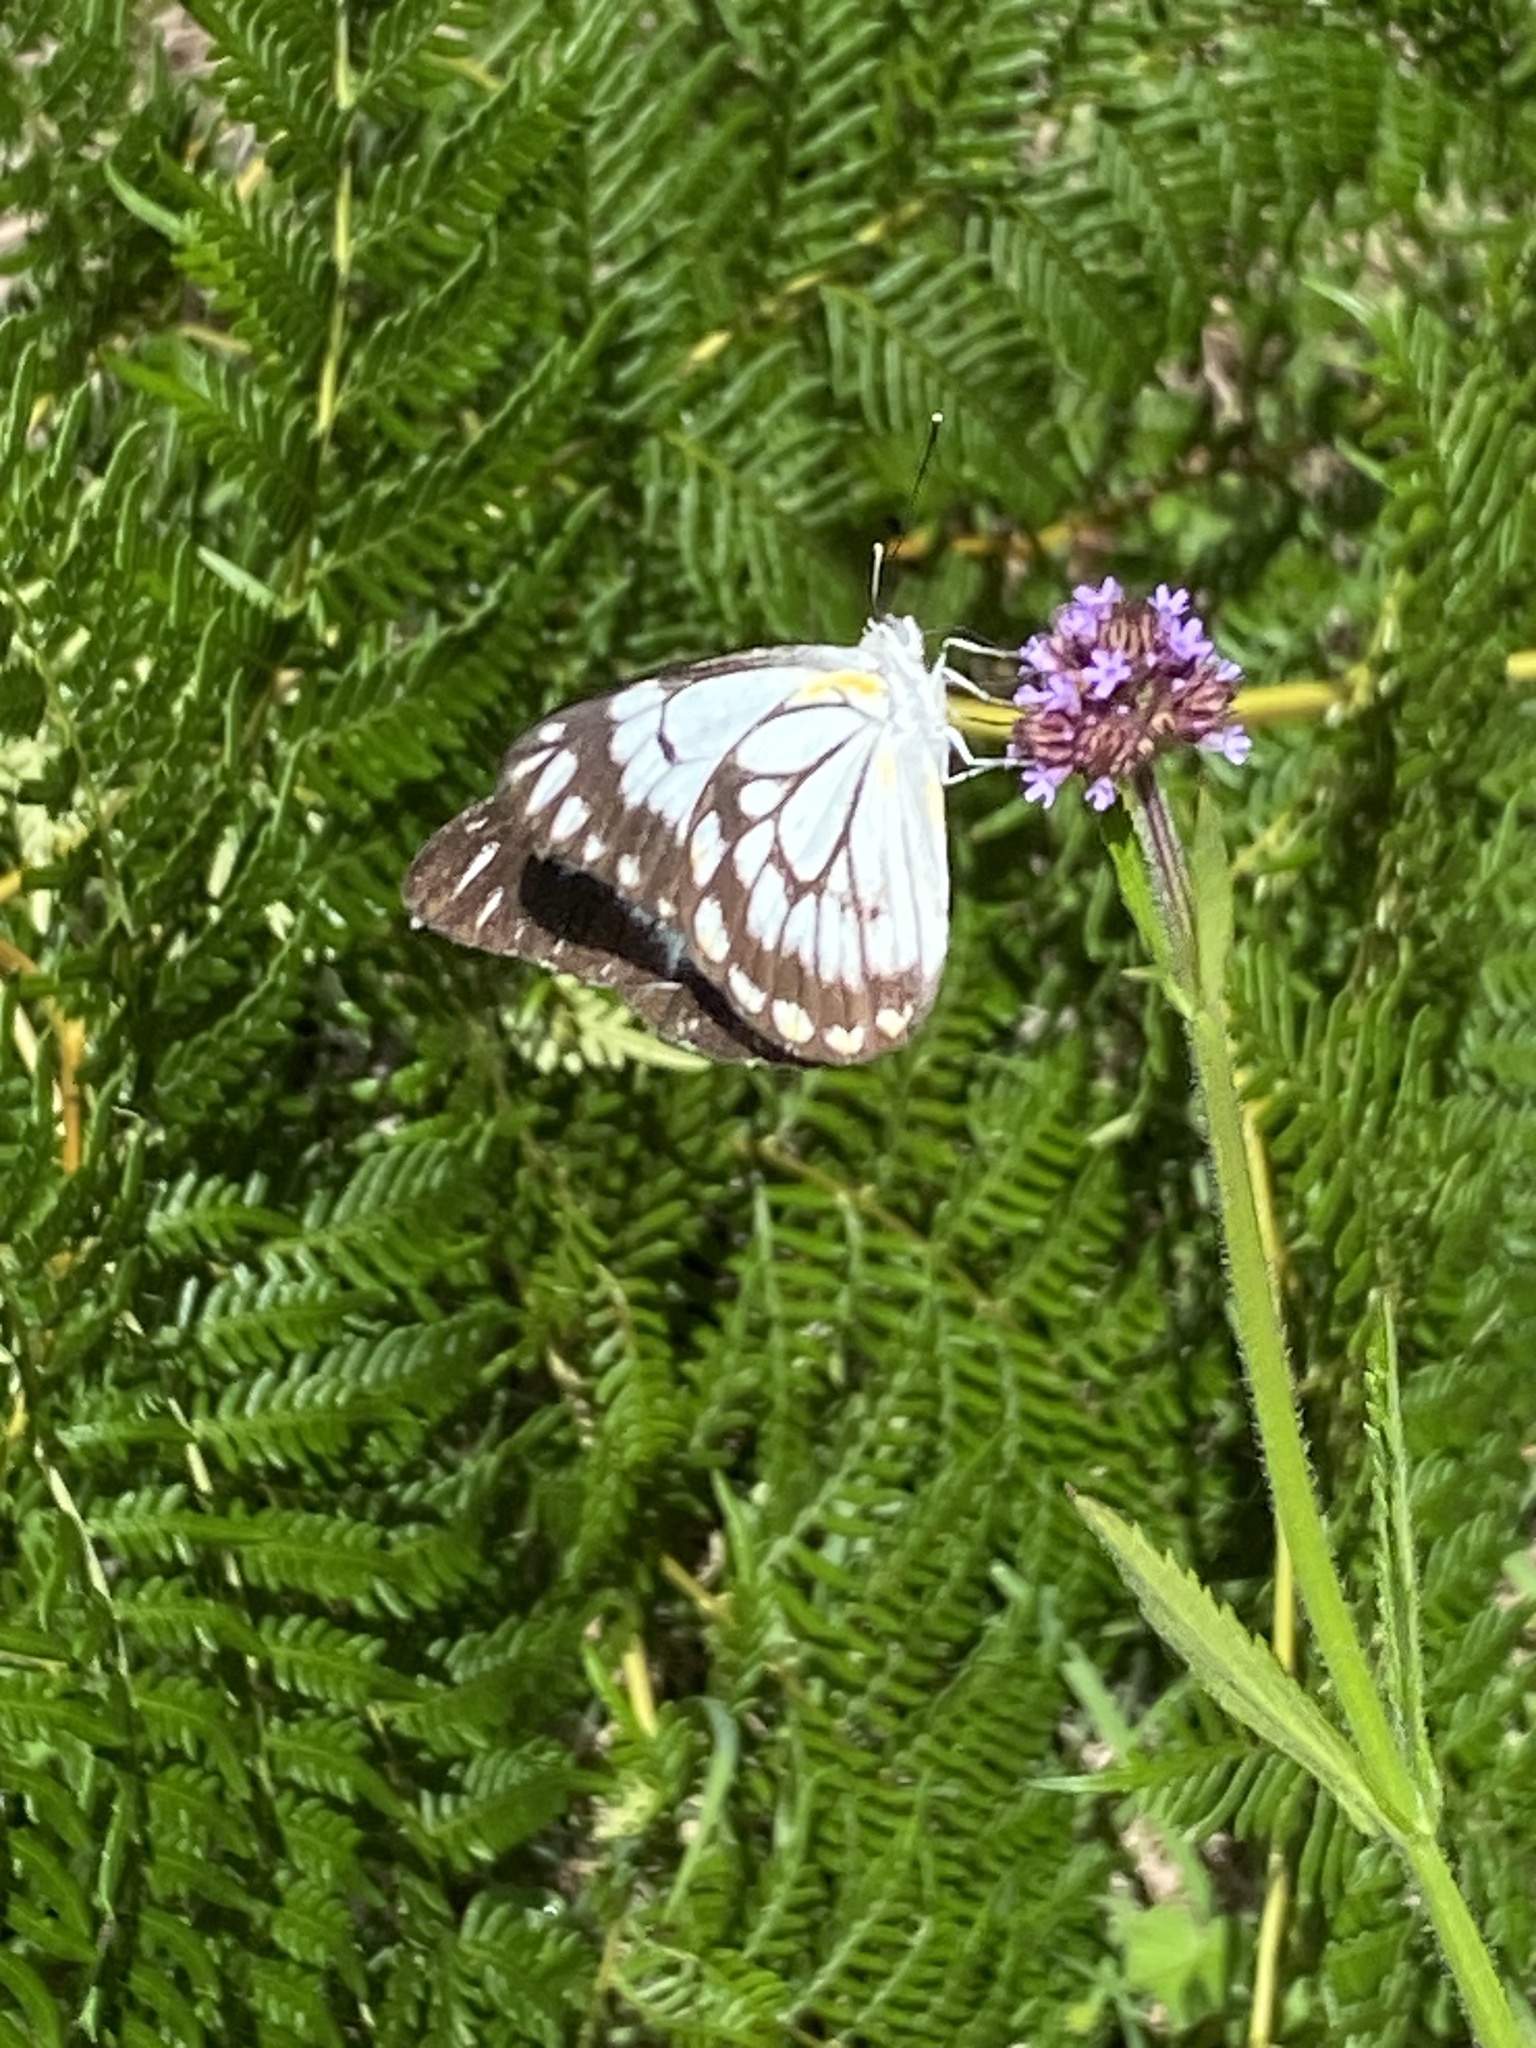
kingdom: Animalia
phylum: Arthropoda
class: Insecta
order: Lepidoptera
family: Pieridae
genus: Belenois
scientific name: Belenois java
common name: Caper white
